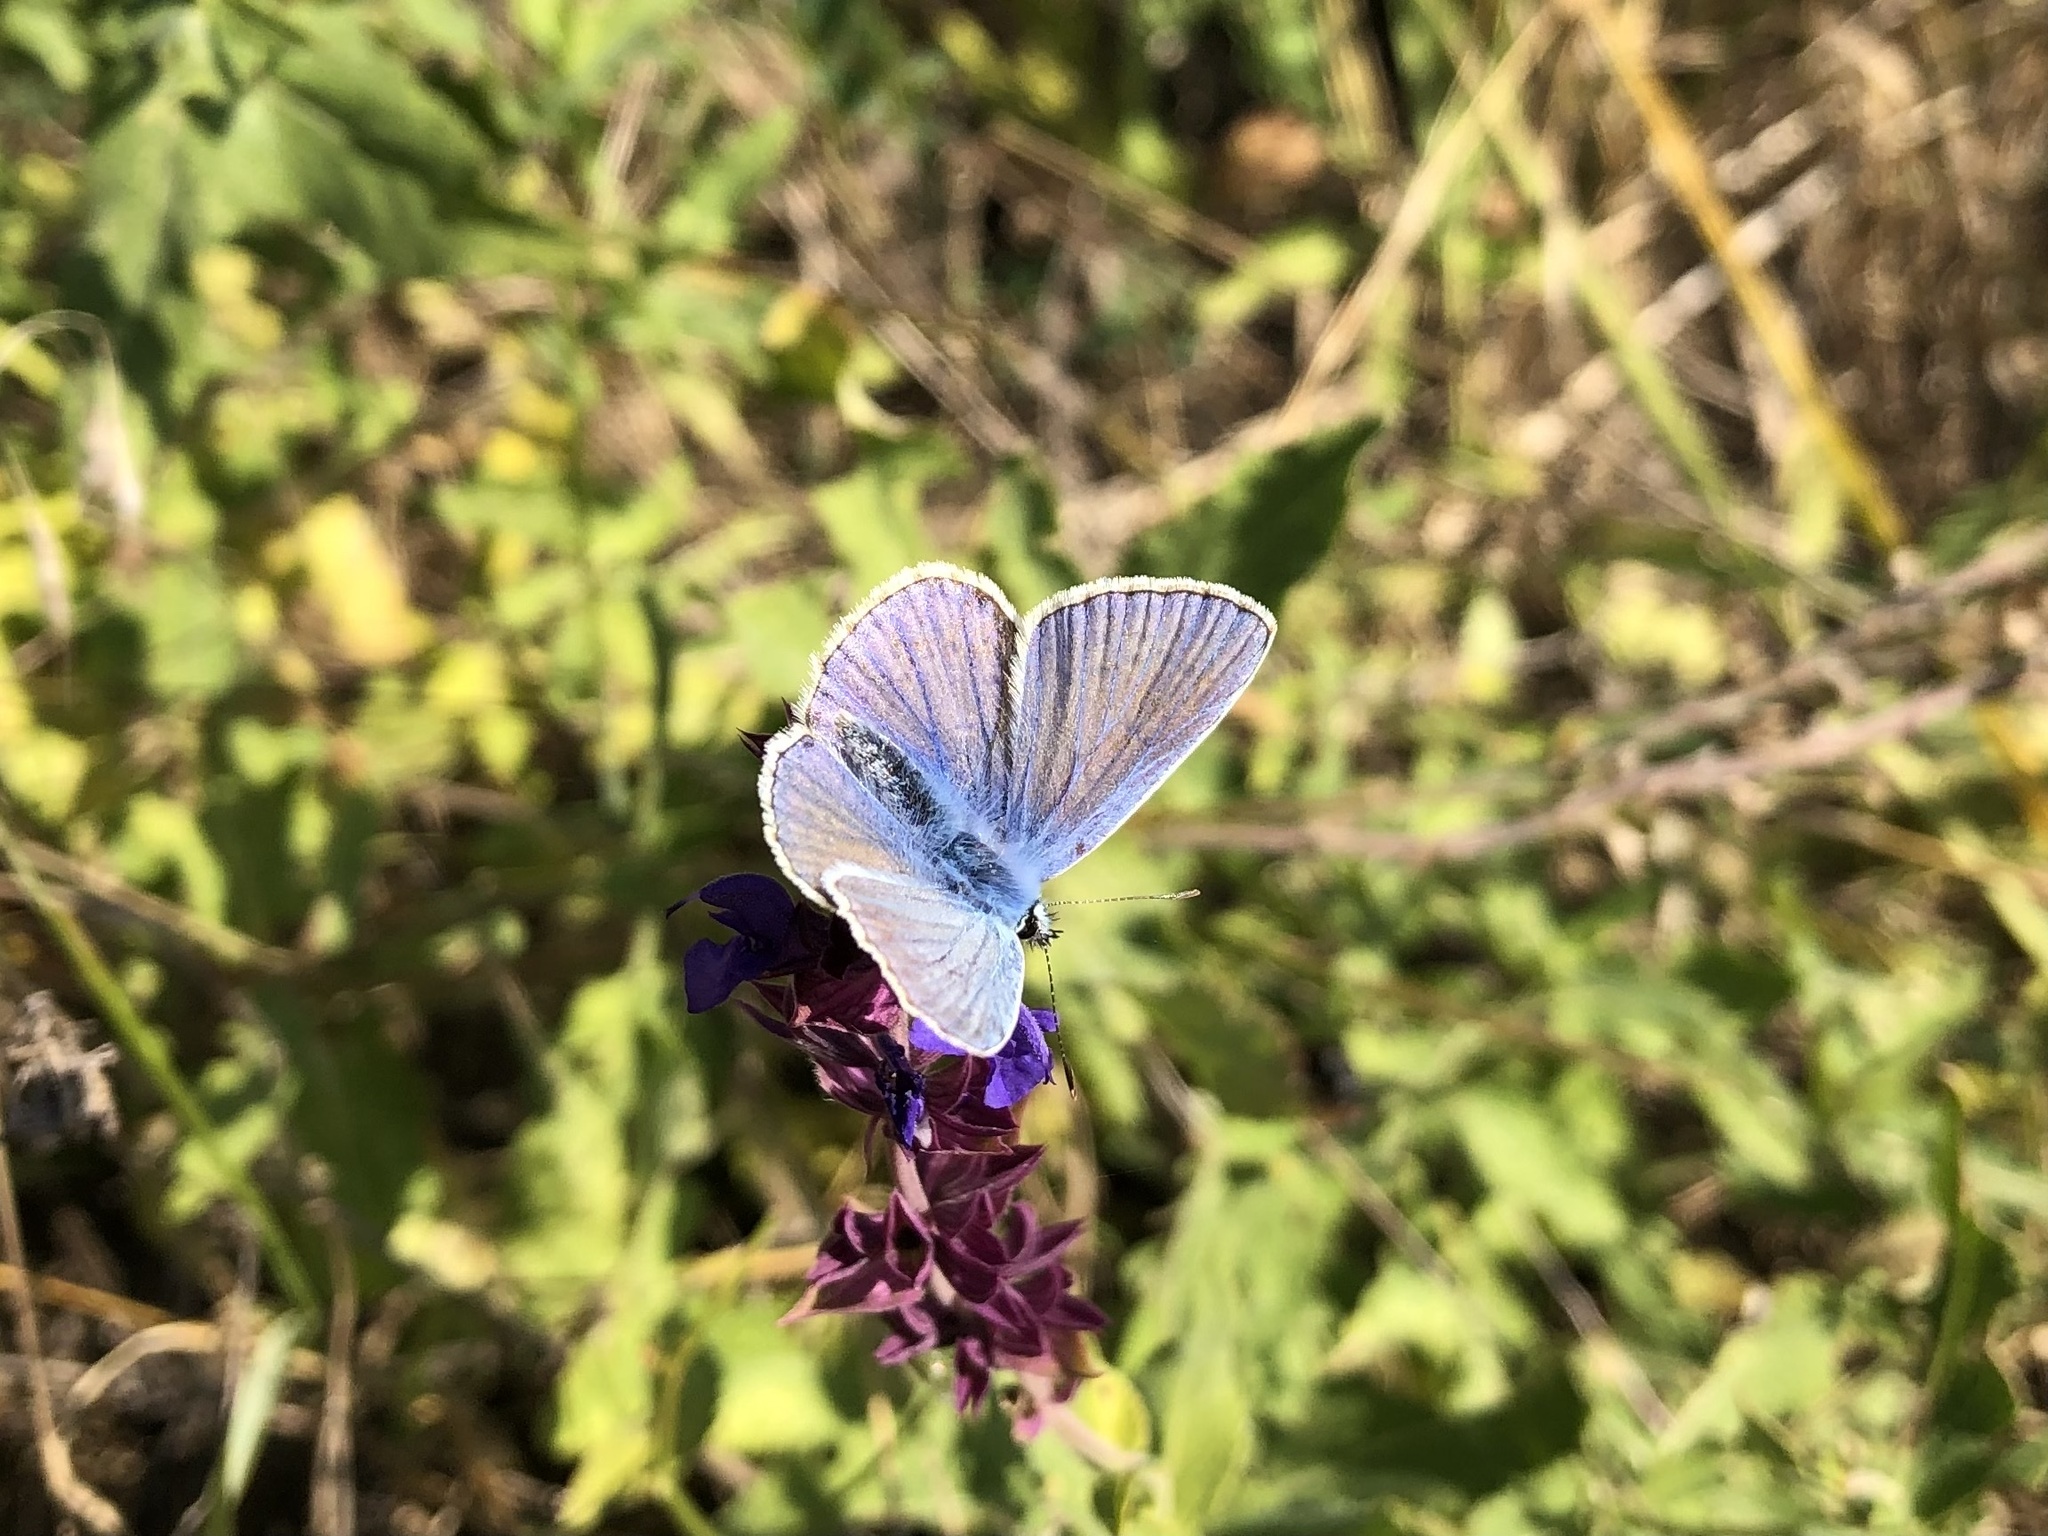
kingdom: Animalia
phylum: Arthropoda
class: Insecta
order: Lepidoptera
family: Lycaenidae
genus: Polyommatus
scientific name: Polyommatus icarus
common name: Common blue
